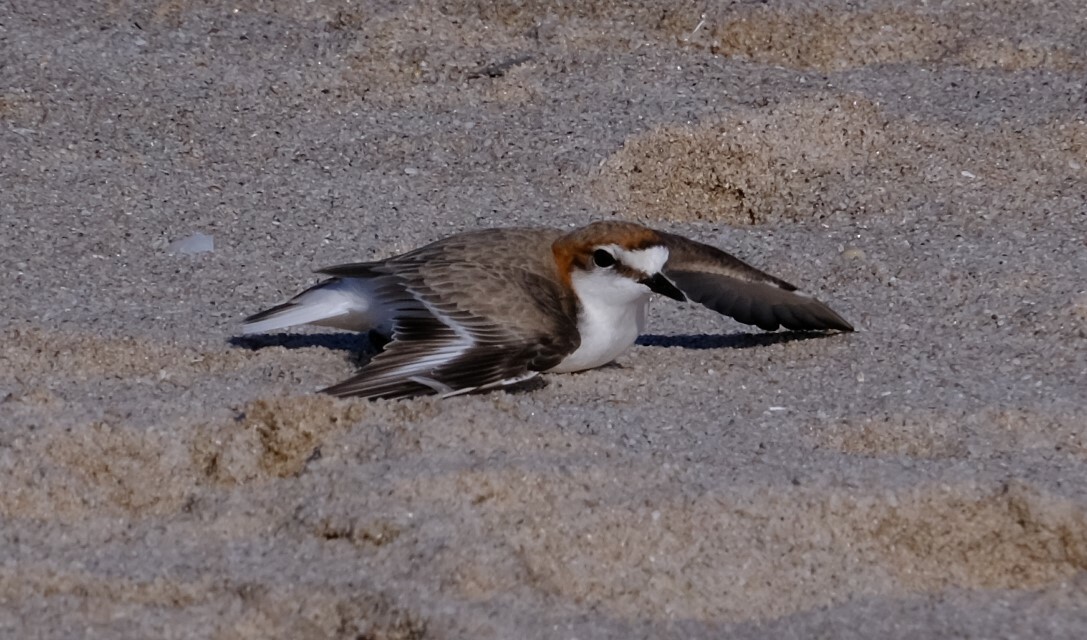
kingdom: Animalia
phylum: Chordata
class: Aves
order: Charadriiformes
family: Charadriidae
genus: Anarhynchus
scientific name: Anarhynchus
